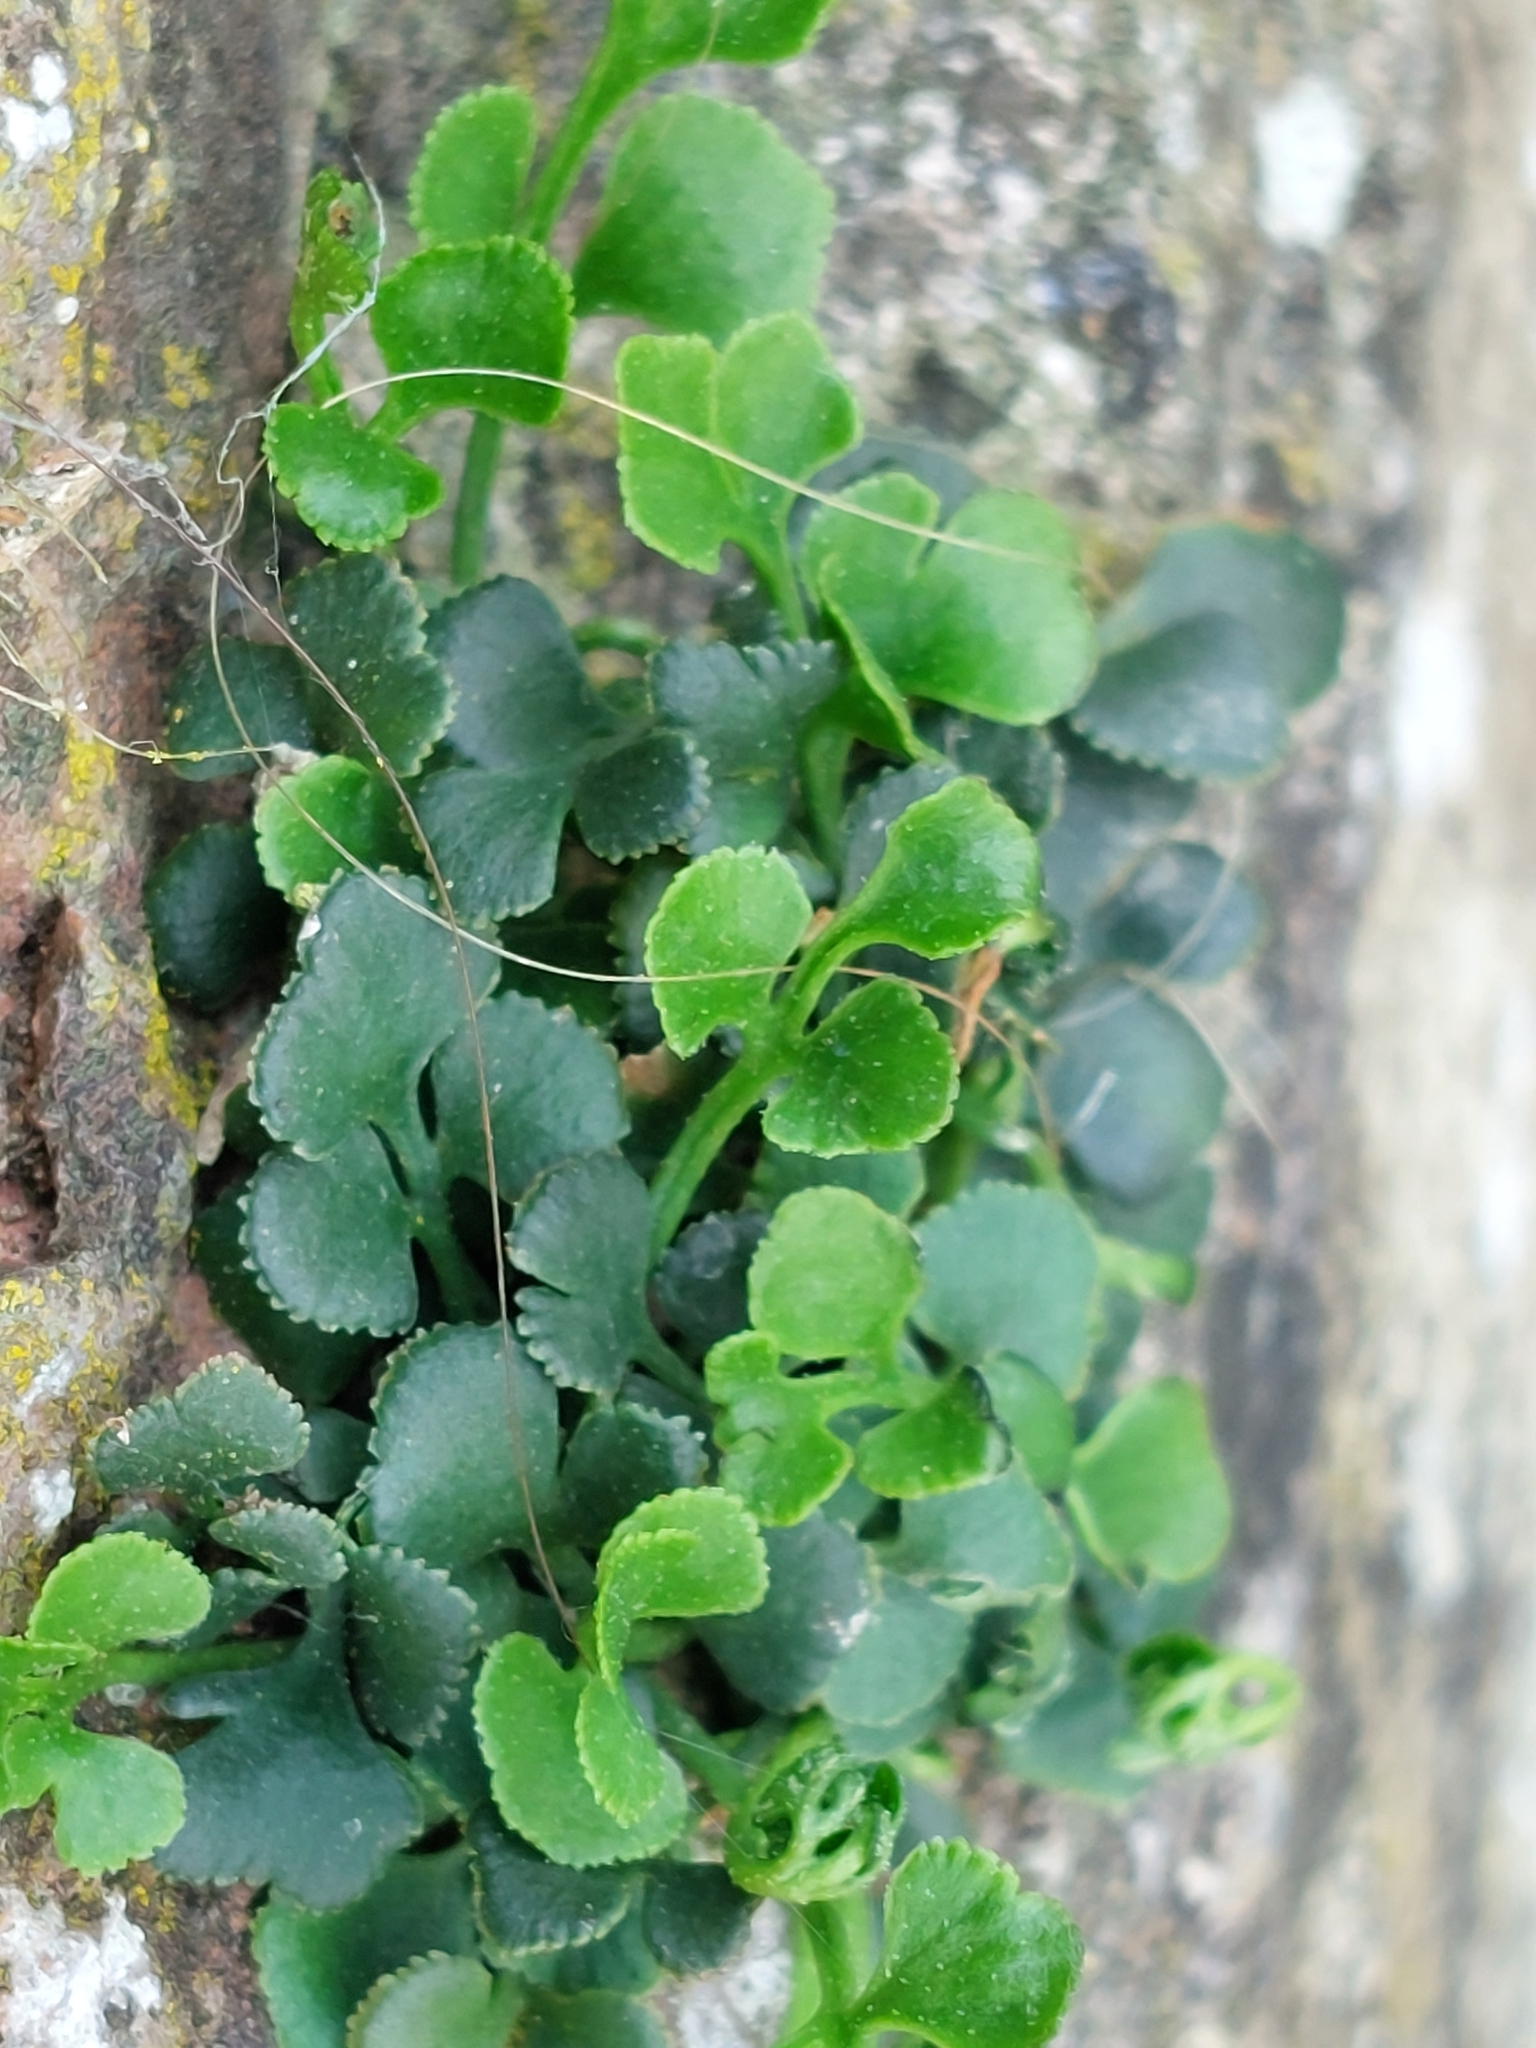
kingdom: Plantae
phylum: Tracheophyta
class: Polypodiopsida
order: Polypodiales
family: Aspleniaceae
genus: Asplenium
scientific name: Asplenium ruta-muraria
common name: Wall-rue
